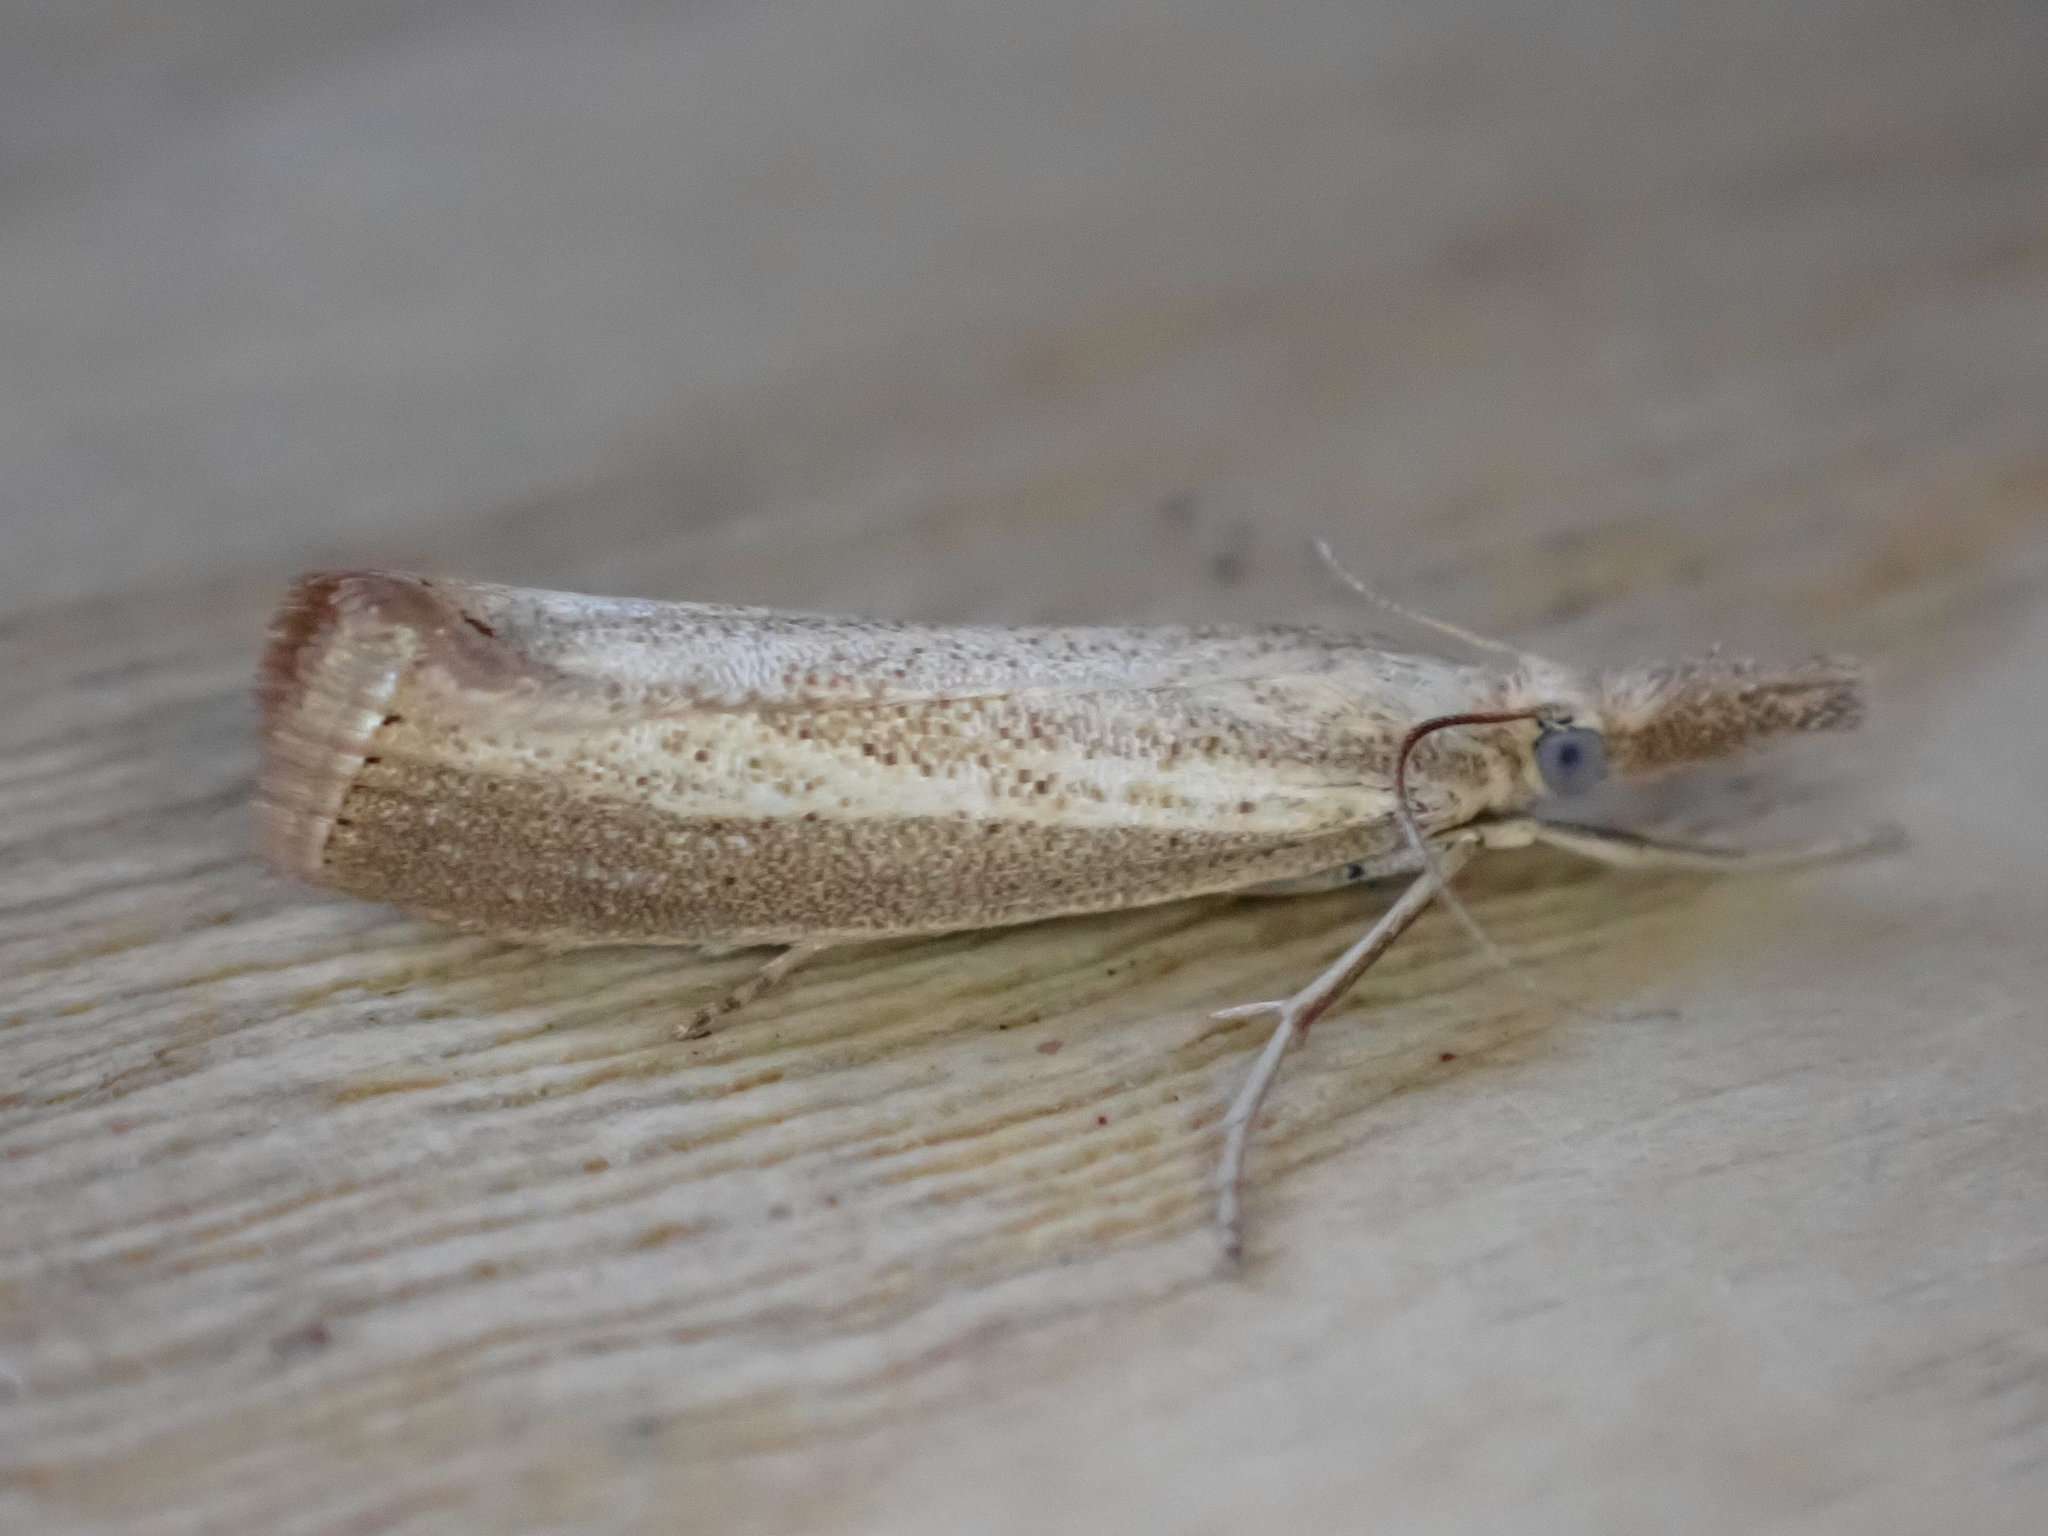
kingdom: Animalia
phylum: Arthropoda
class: Insecta
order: Lepidoptera
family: Crambidae
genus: Agriphila
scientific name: Agriphila straminella
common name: Straw grass-veneer
